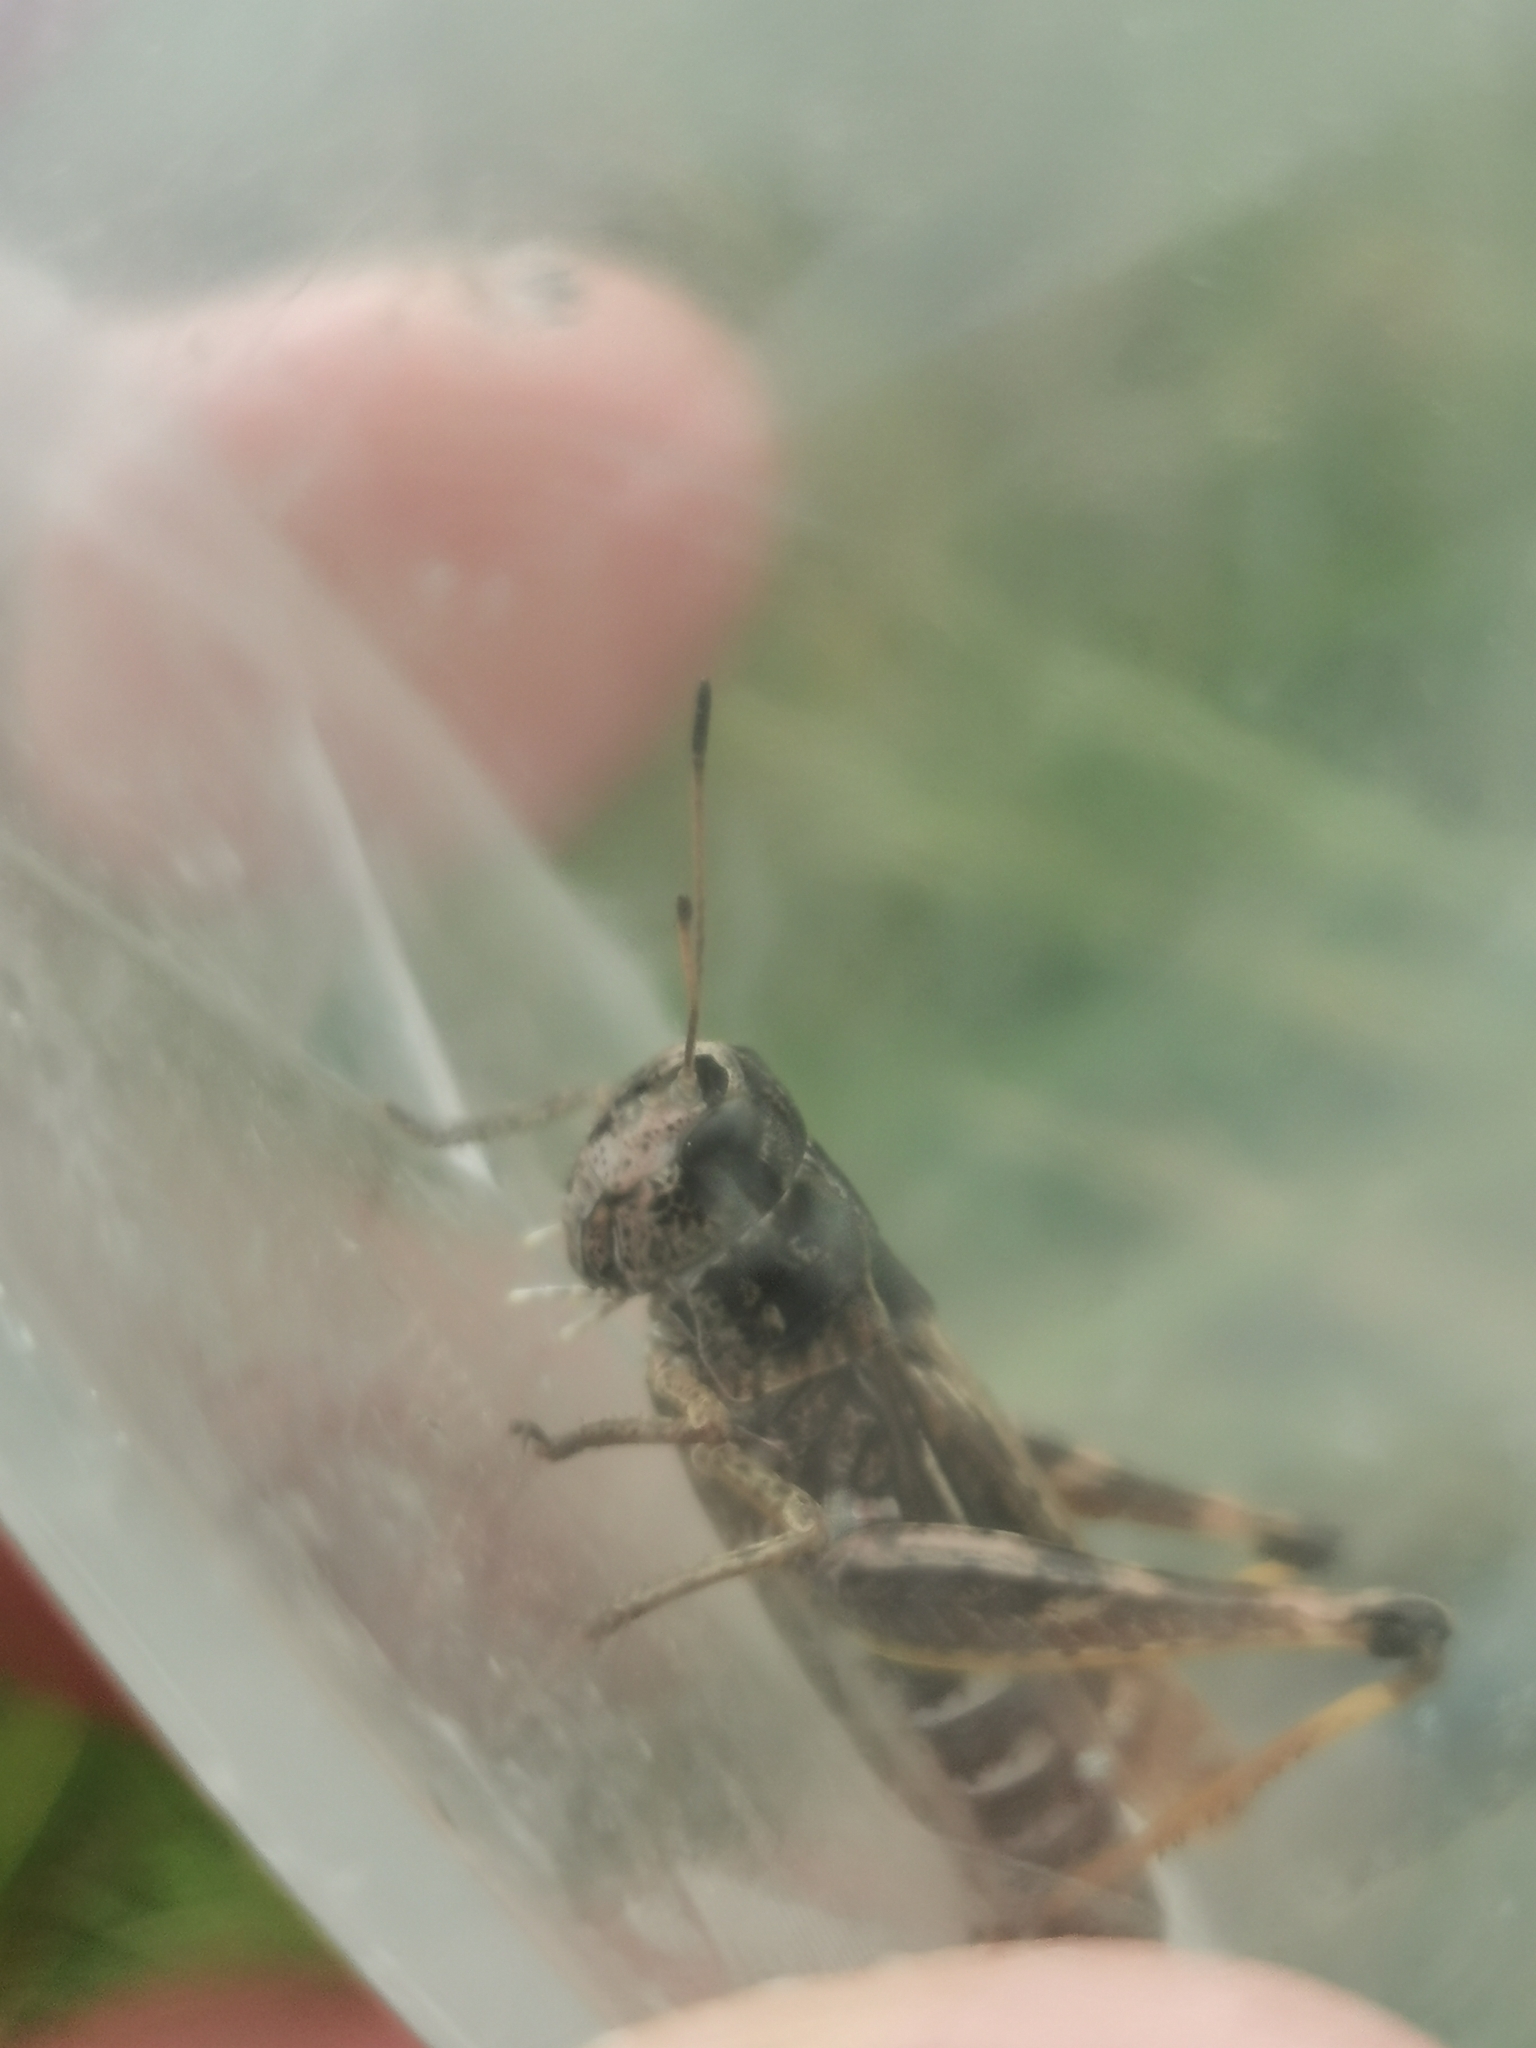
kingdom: Animalia
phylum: Arthropoda
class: Insecta
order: Orthoptera
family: Acrididae
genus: Gomphocerus
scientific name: Gomphocerus sibiricus
